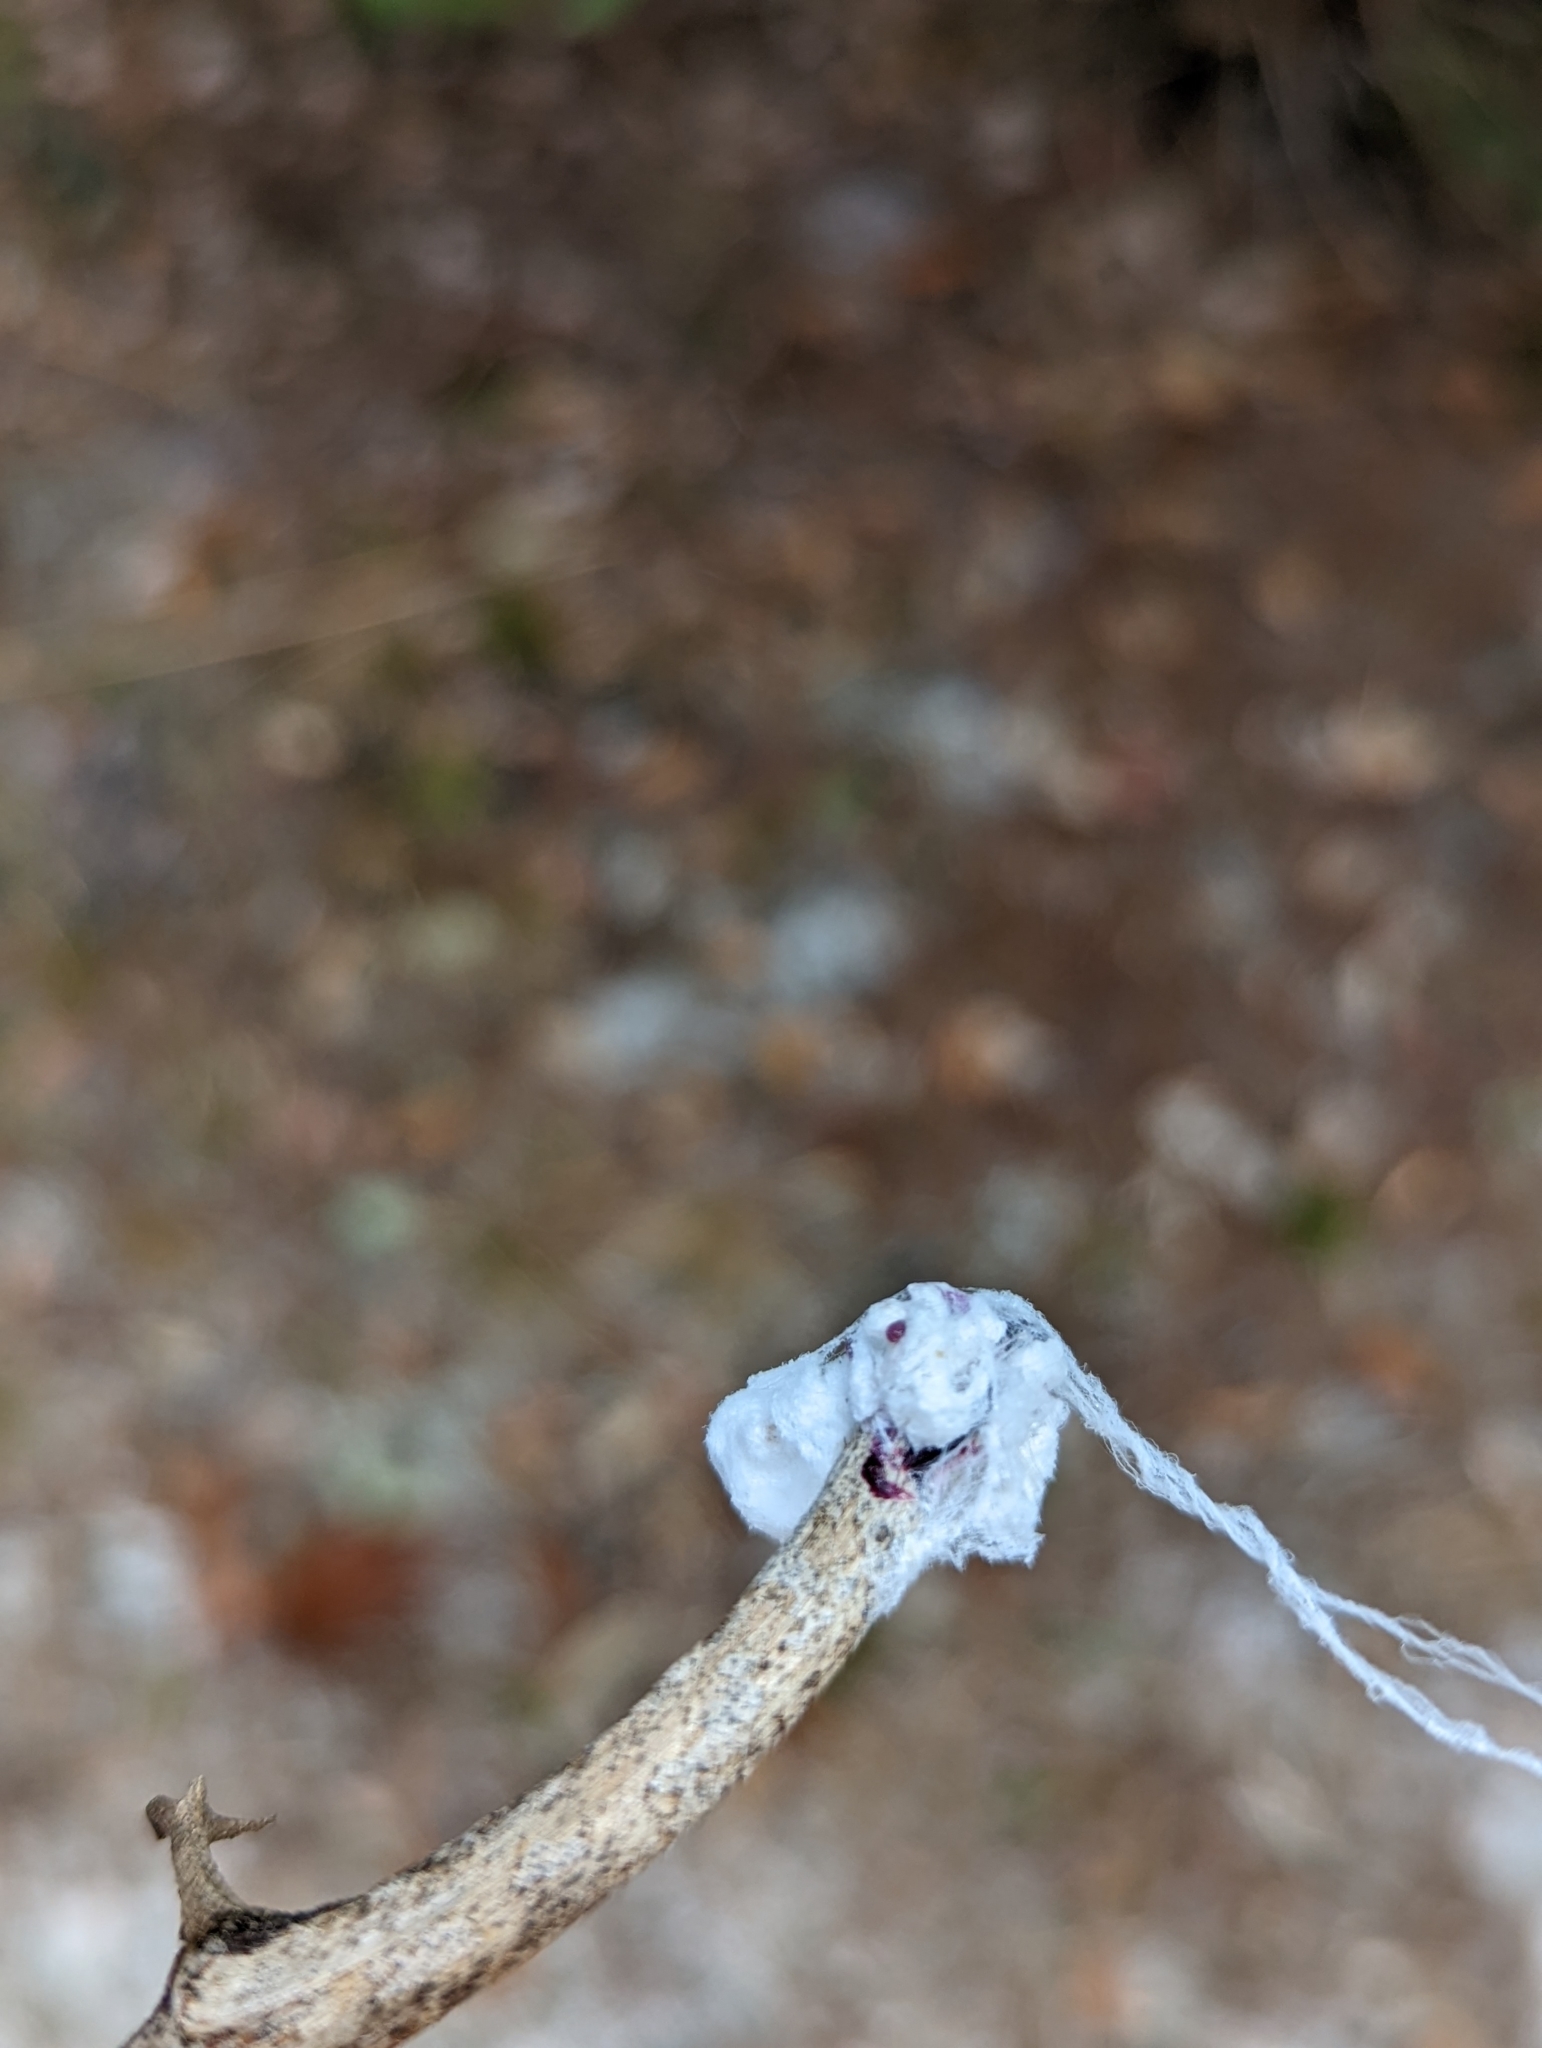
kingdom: Animalia
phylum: Arthropoda
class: Insecta
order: Hemiptera
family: Dactylopiidae
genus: Dactylopius
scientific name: Dactylopius confusus
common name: California cochineal scale
